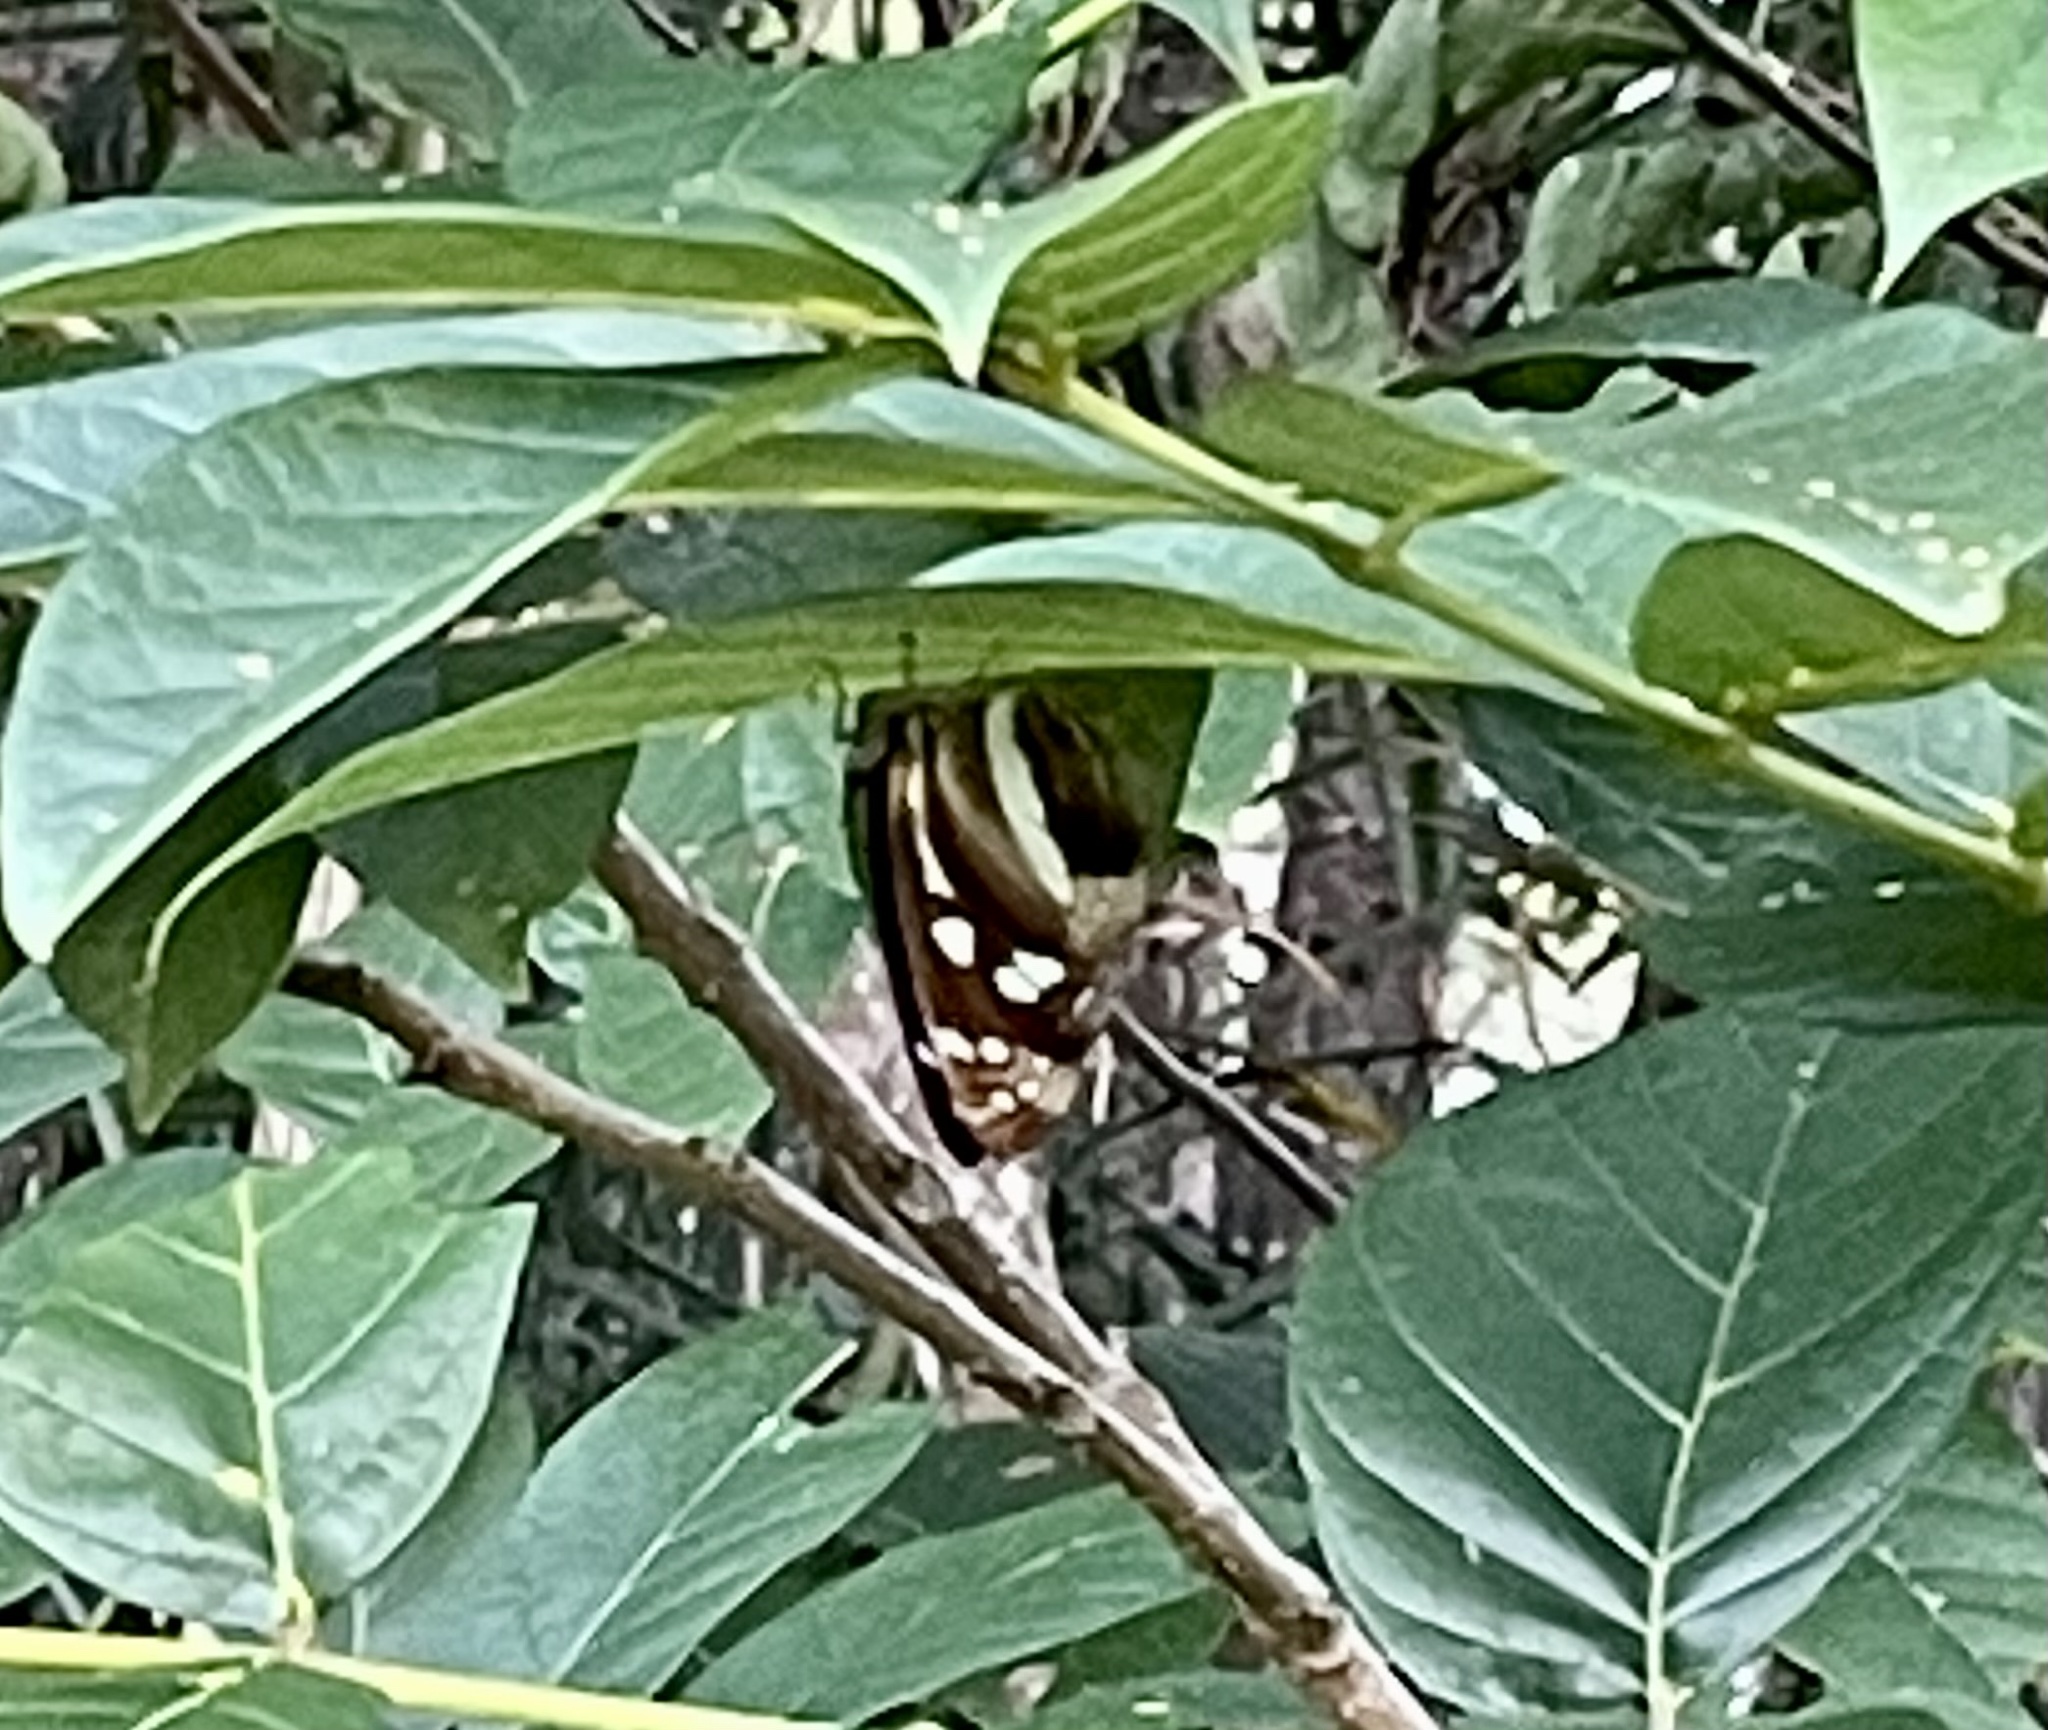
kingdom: Animalia
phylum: Arthropoda
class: Insecta
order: Lepidoptera
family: Nymphalidae
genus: Phaedyma
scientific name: Phaedyma shepherdi
